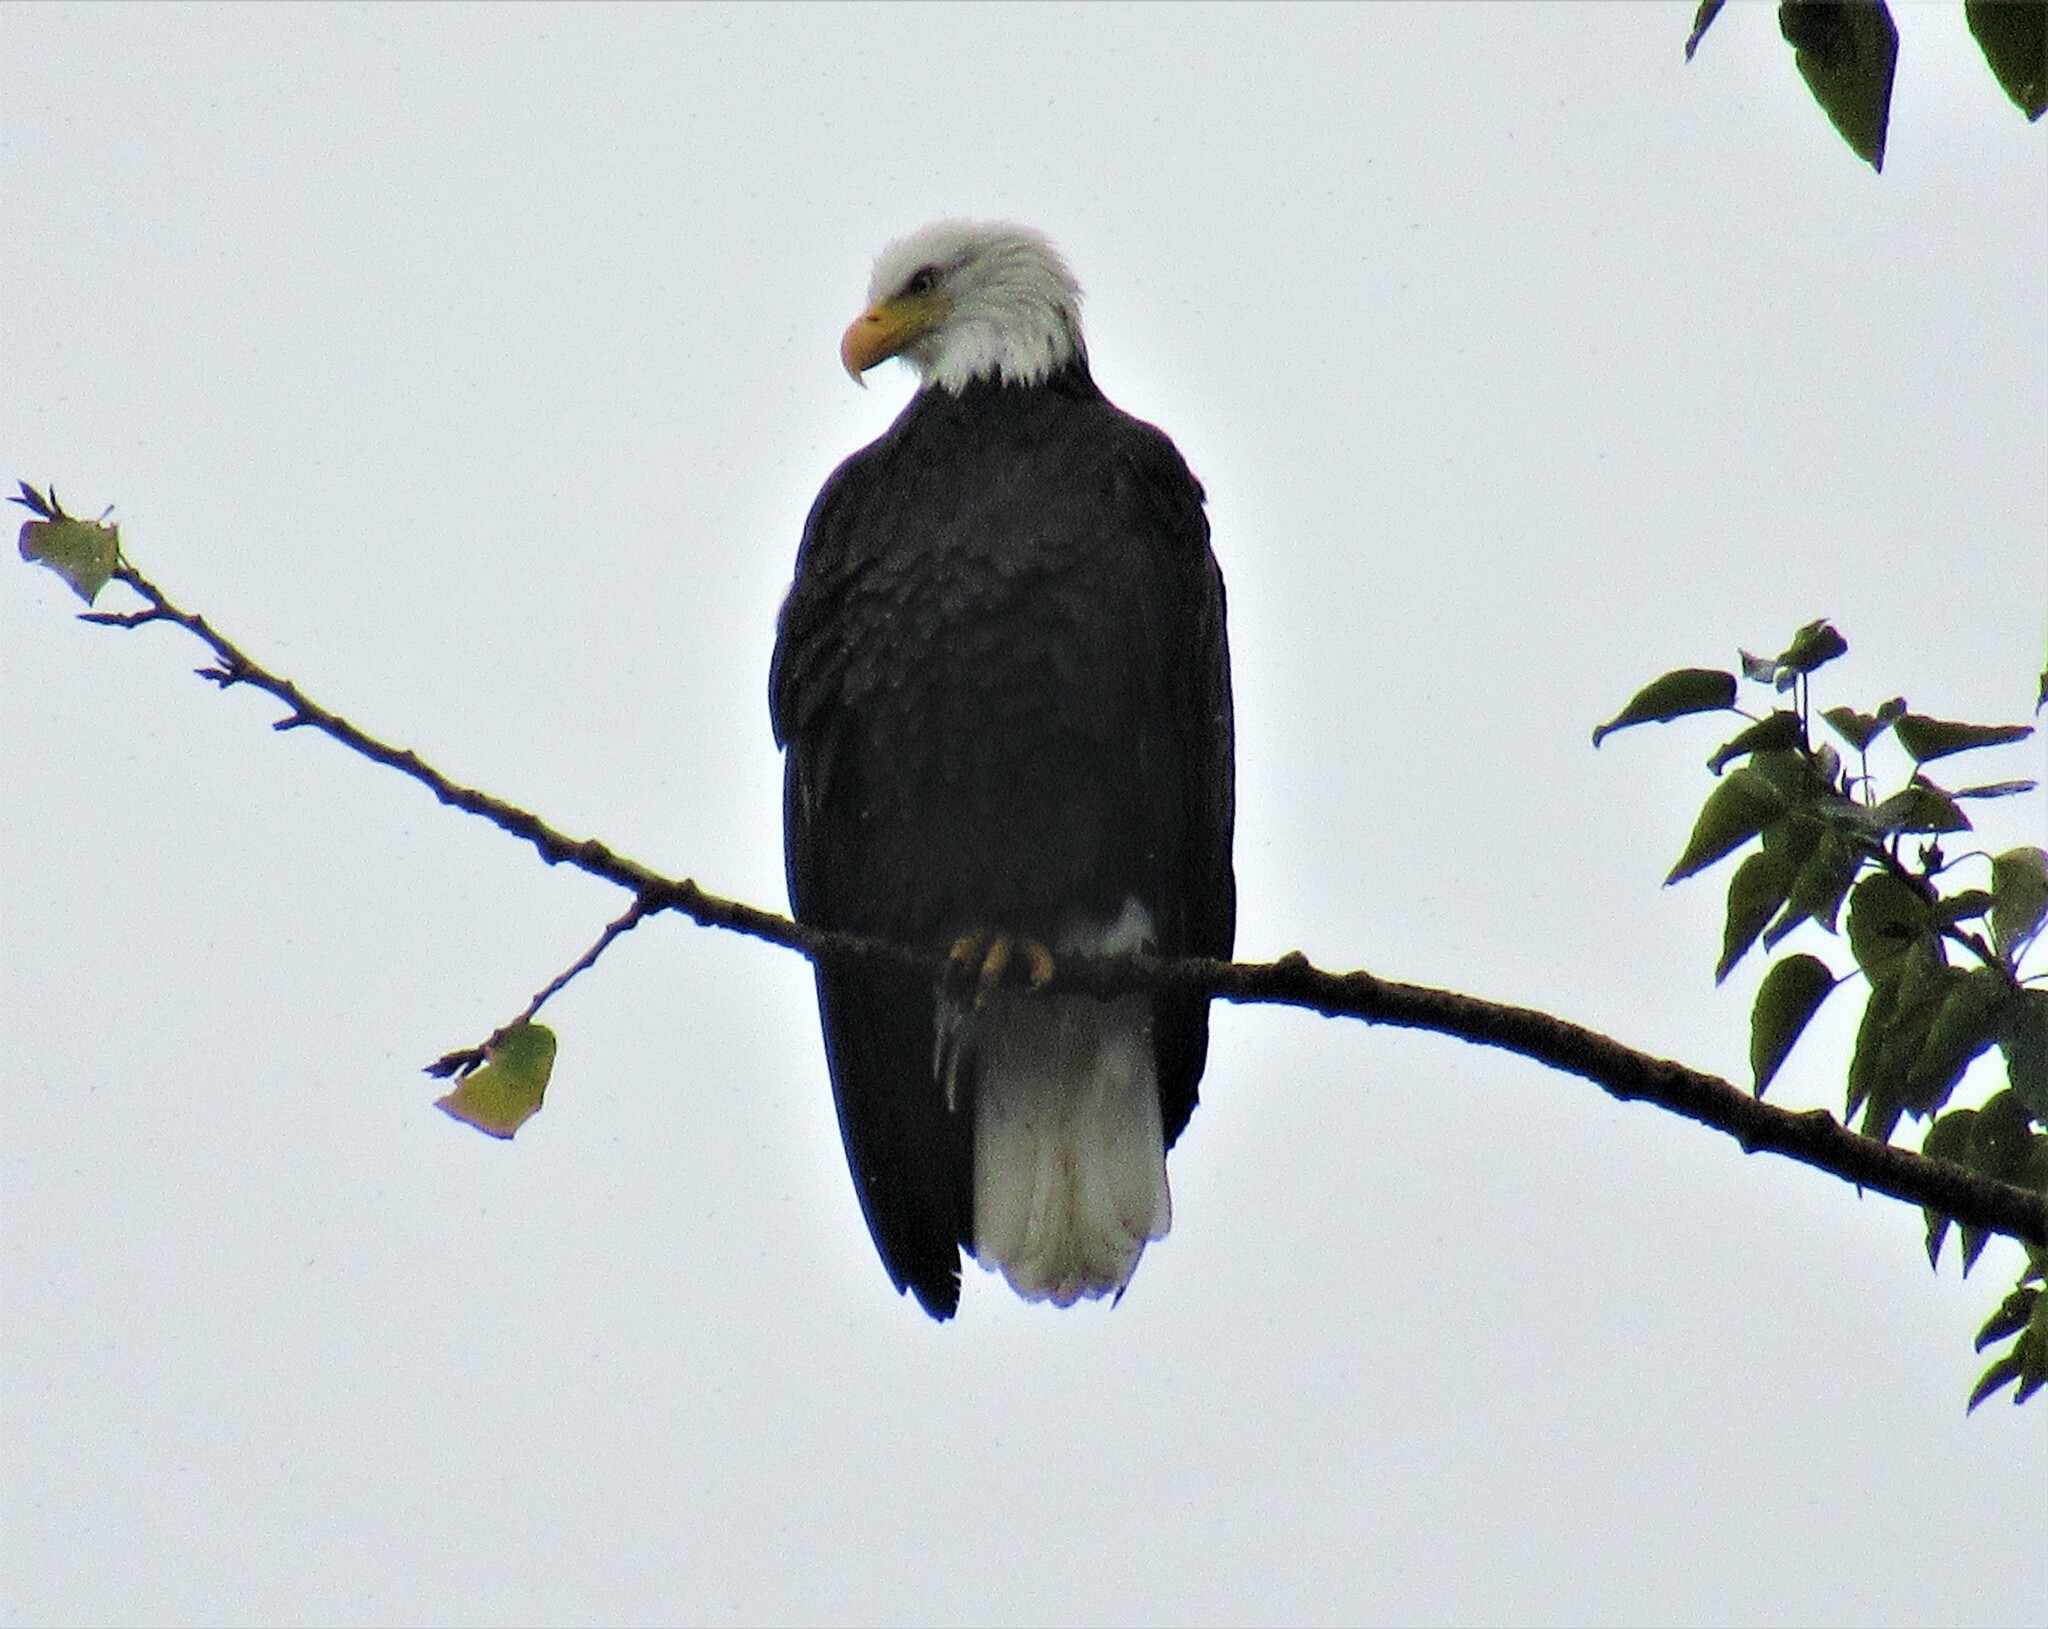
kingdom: Animalia
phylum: Chordata
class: Aves
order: Accipitriformes
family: Accipitridae
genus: Haliaeetus
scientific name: Haliaeetus leucocephalus
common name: Bald eagle
